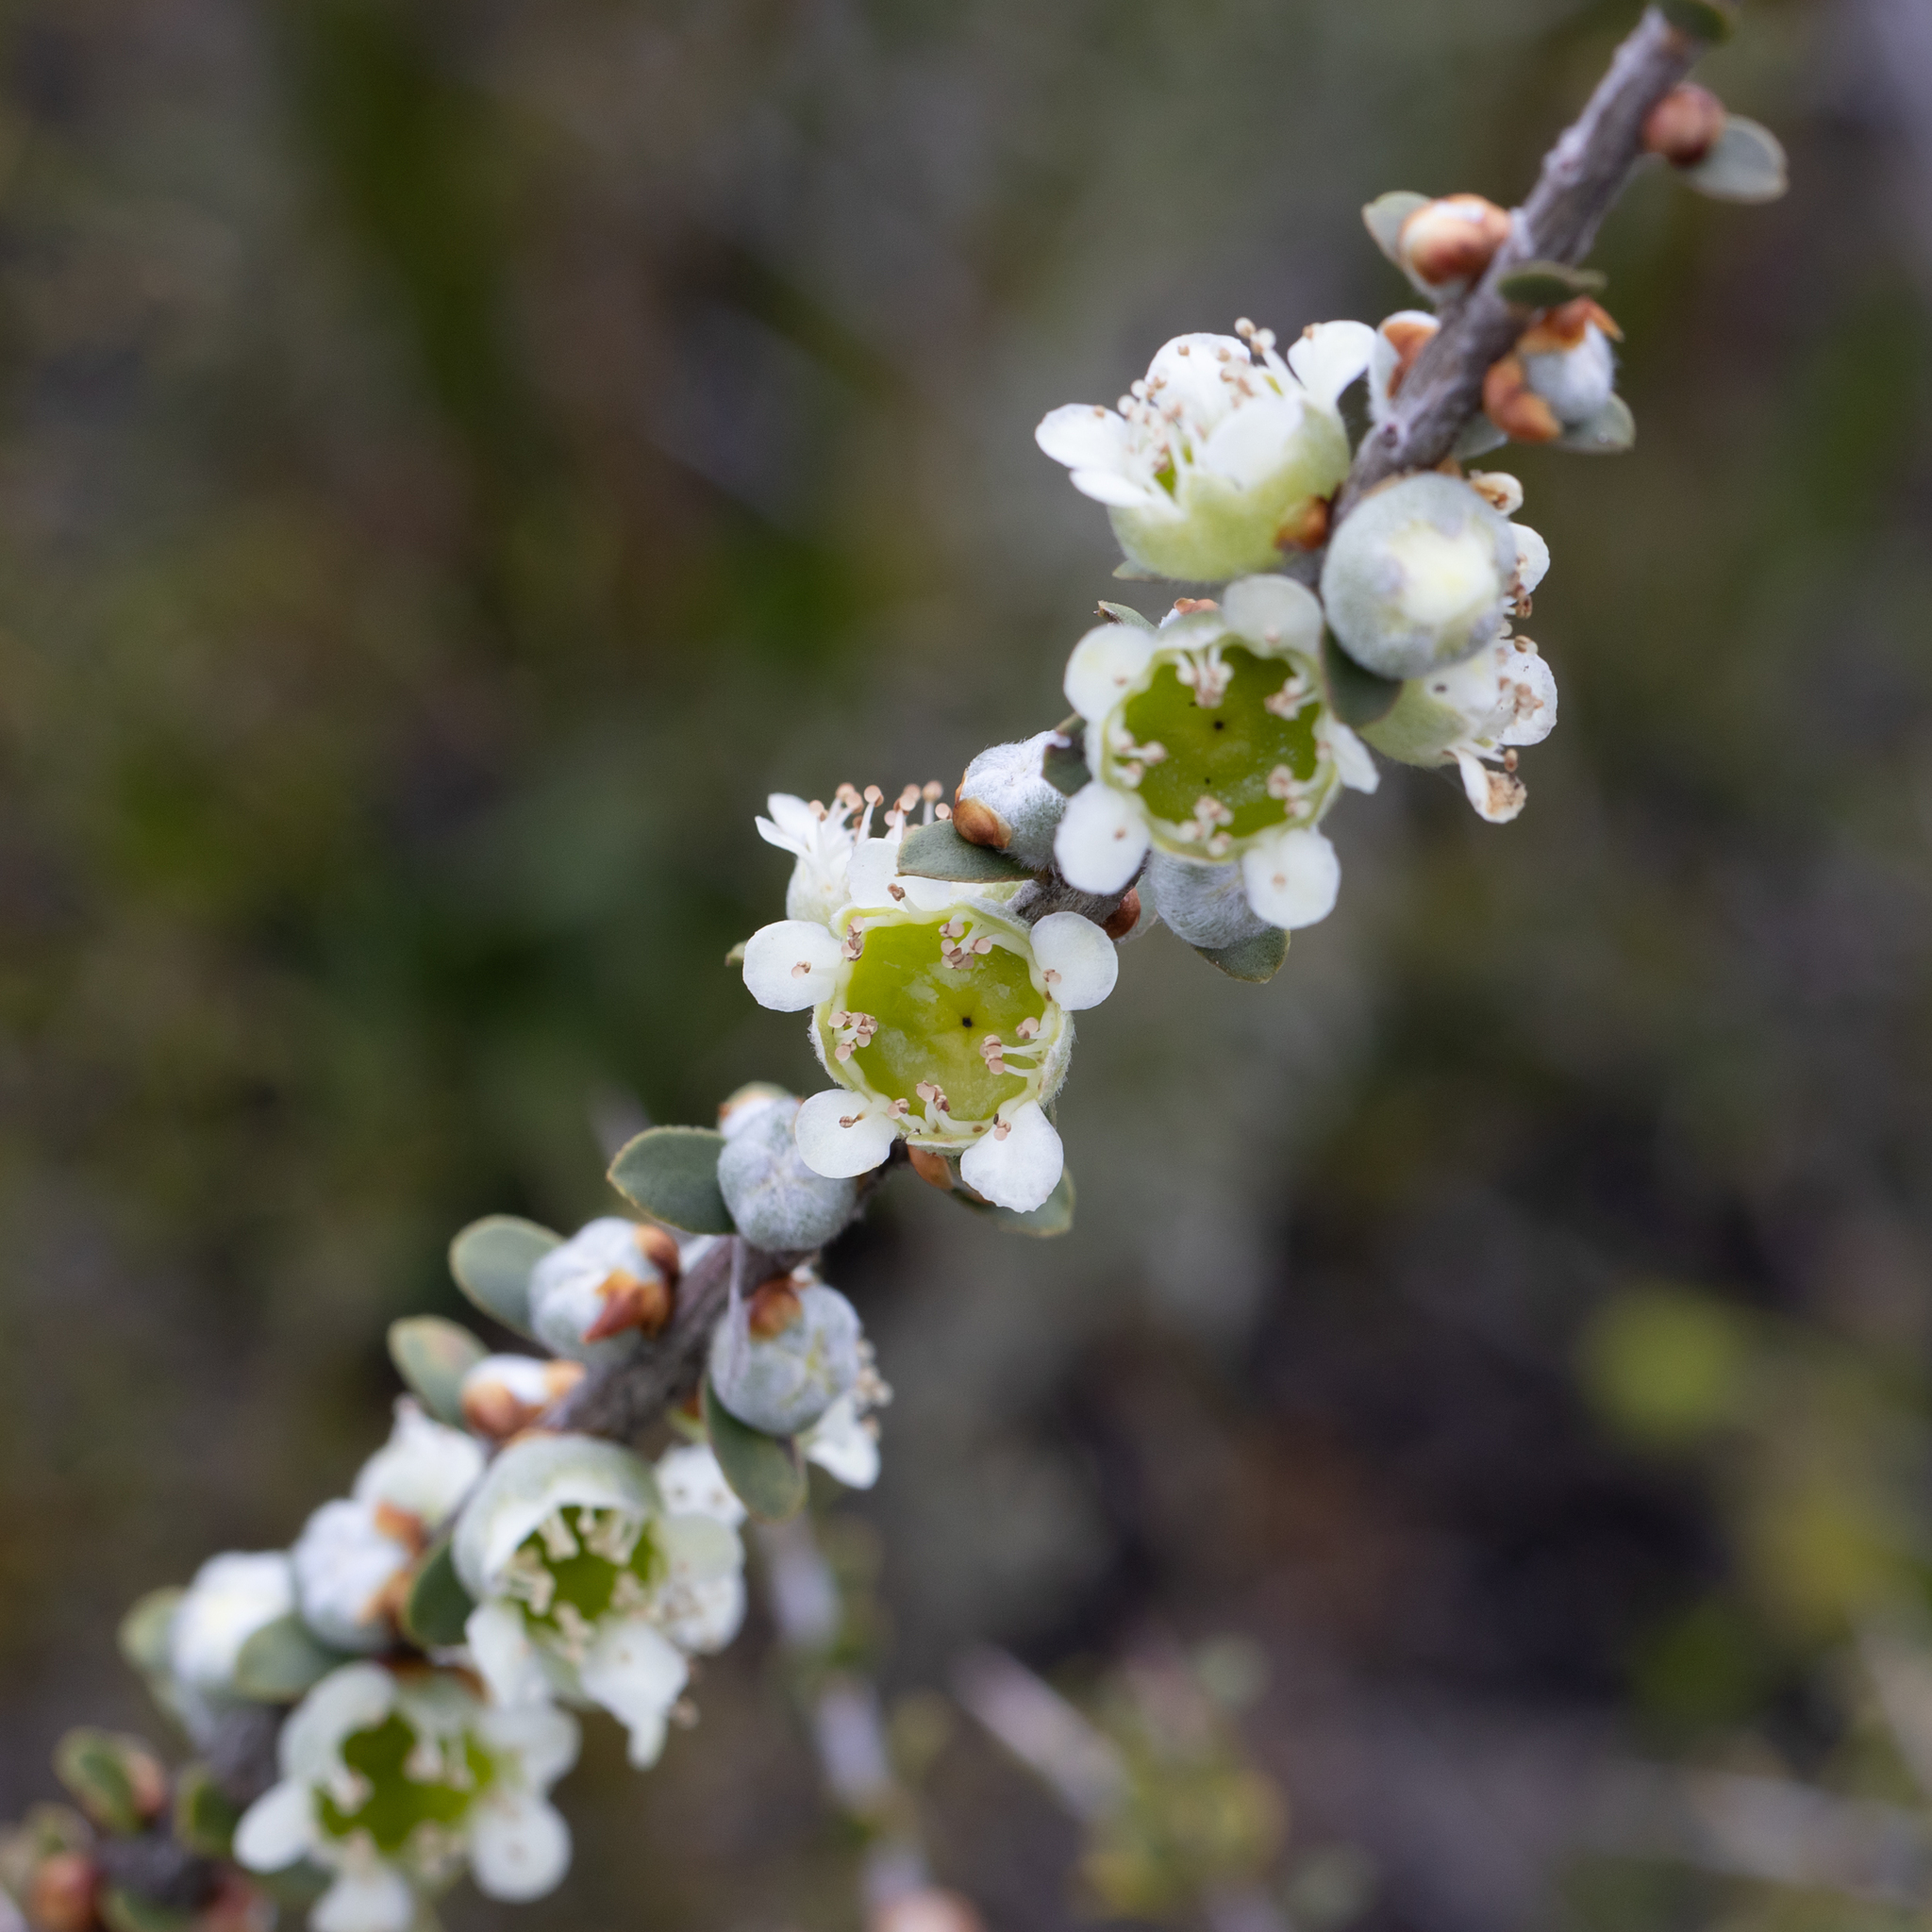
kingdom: Plantae
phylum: Tracheophyta
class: Magnoliopsida
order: Myrtales
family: Myrtaceae
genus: Leptospermum
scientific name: Leptospermum spinescens
